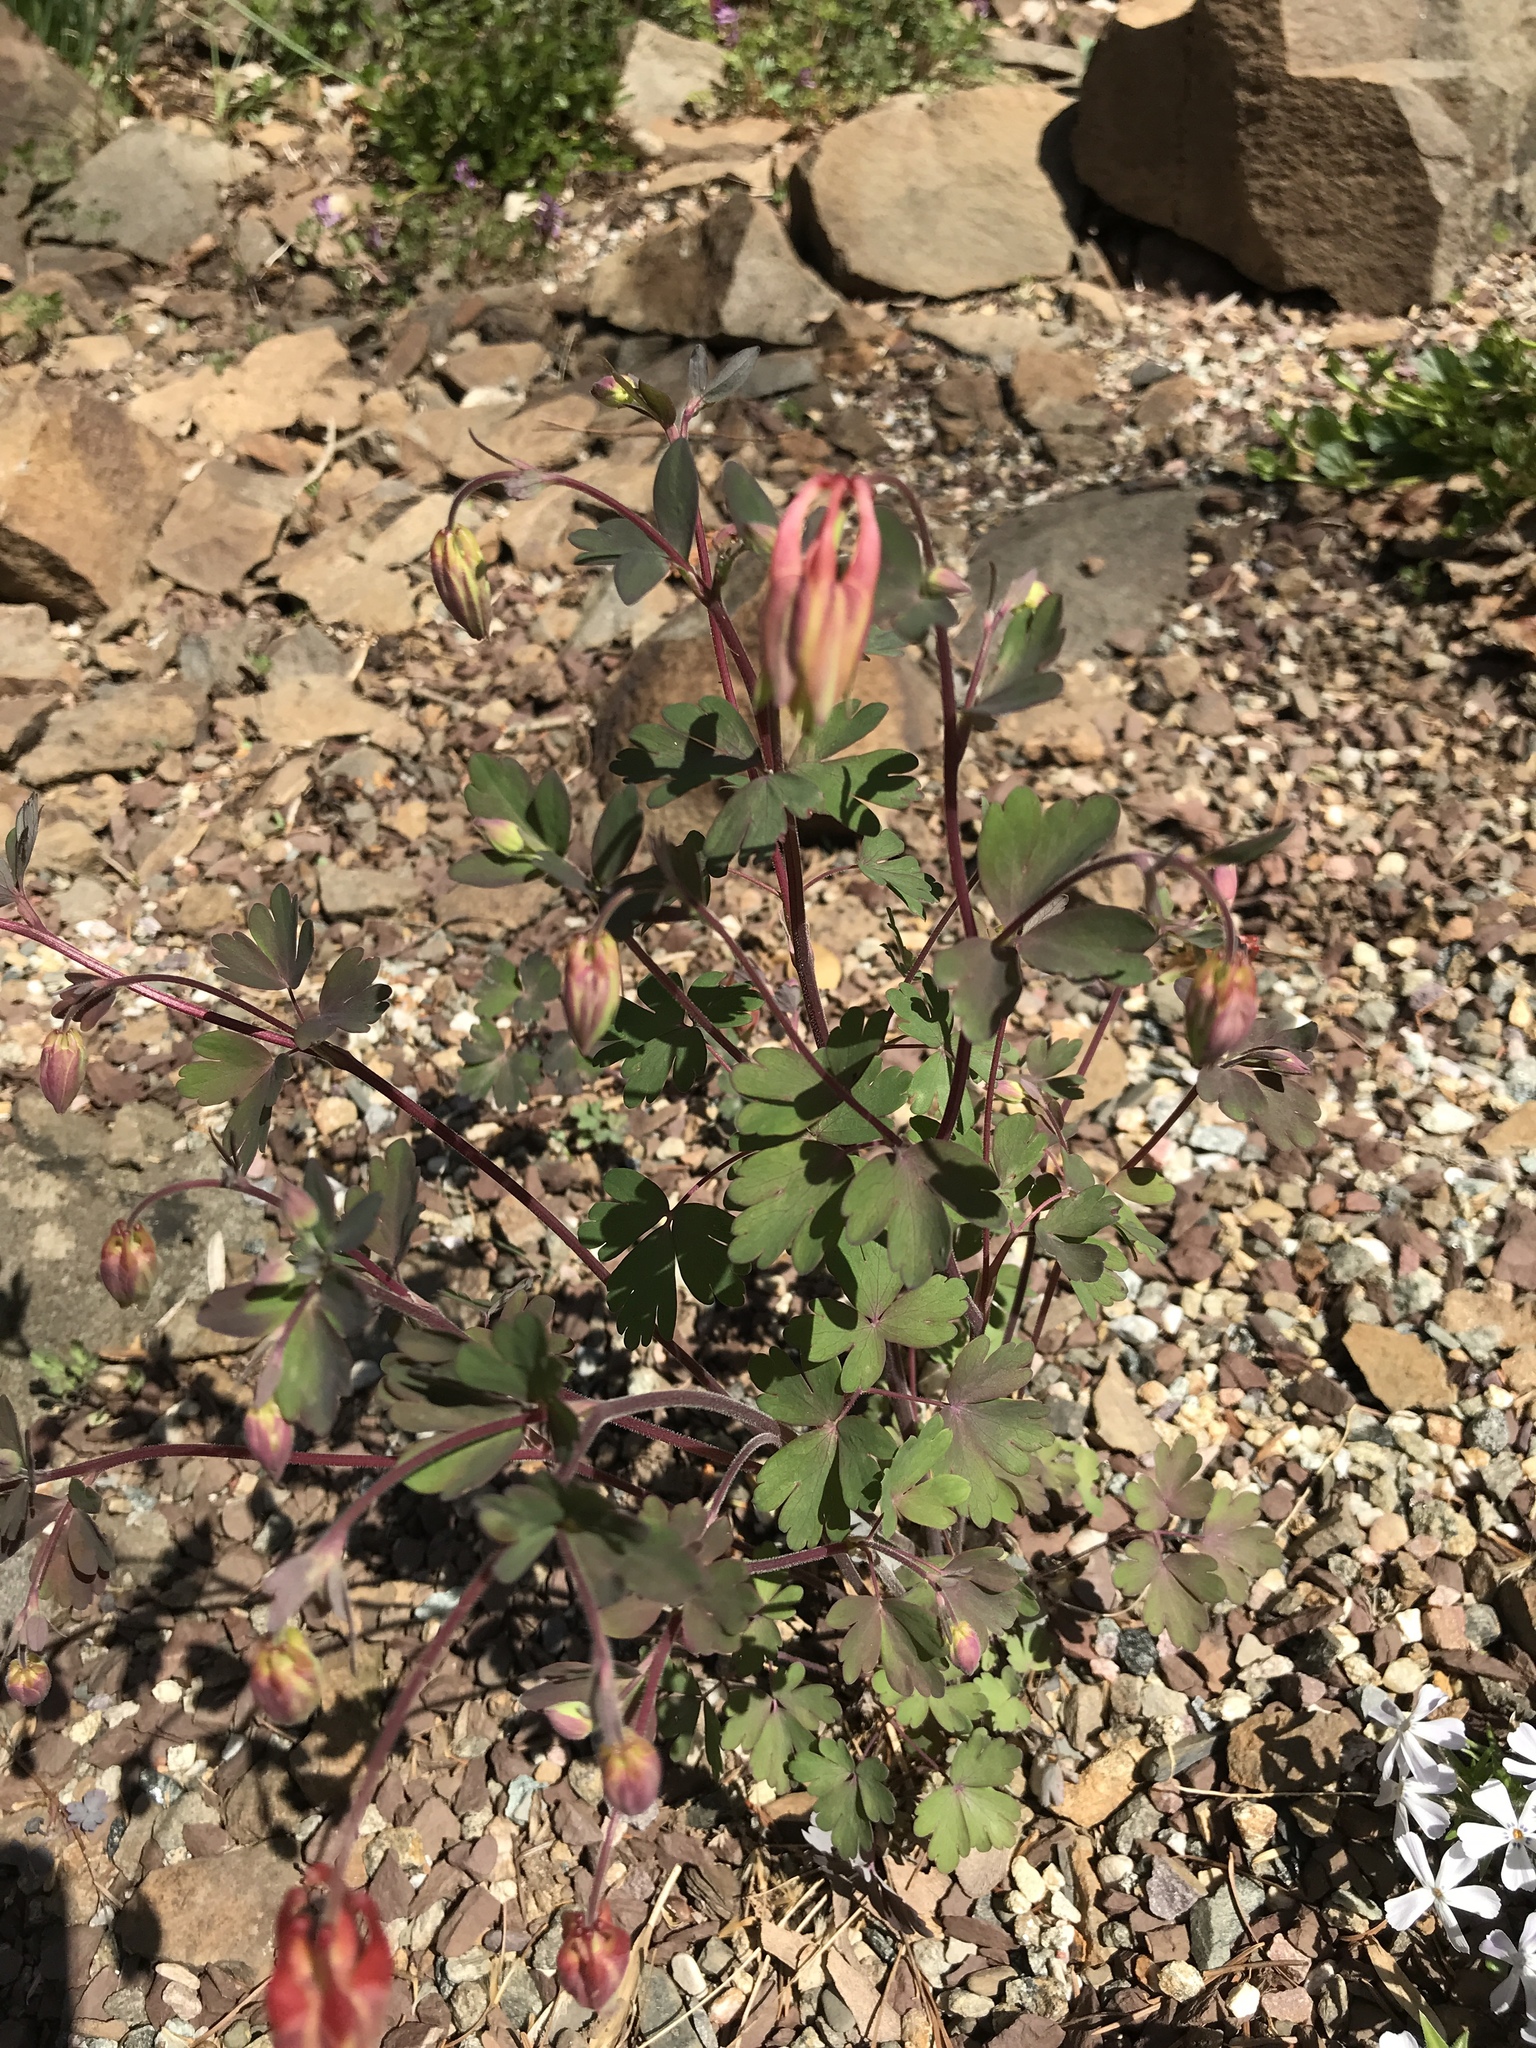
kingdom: Plantae
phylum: Tracheophyta
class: Magnoliopsida
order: Ranunculales
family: Ranunculaceae
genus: Aquilegia
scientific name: Aquilegia canadensis
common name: American columbine
